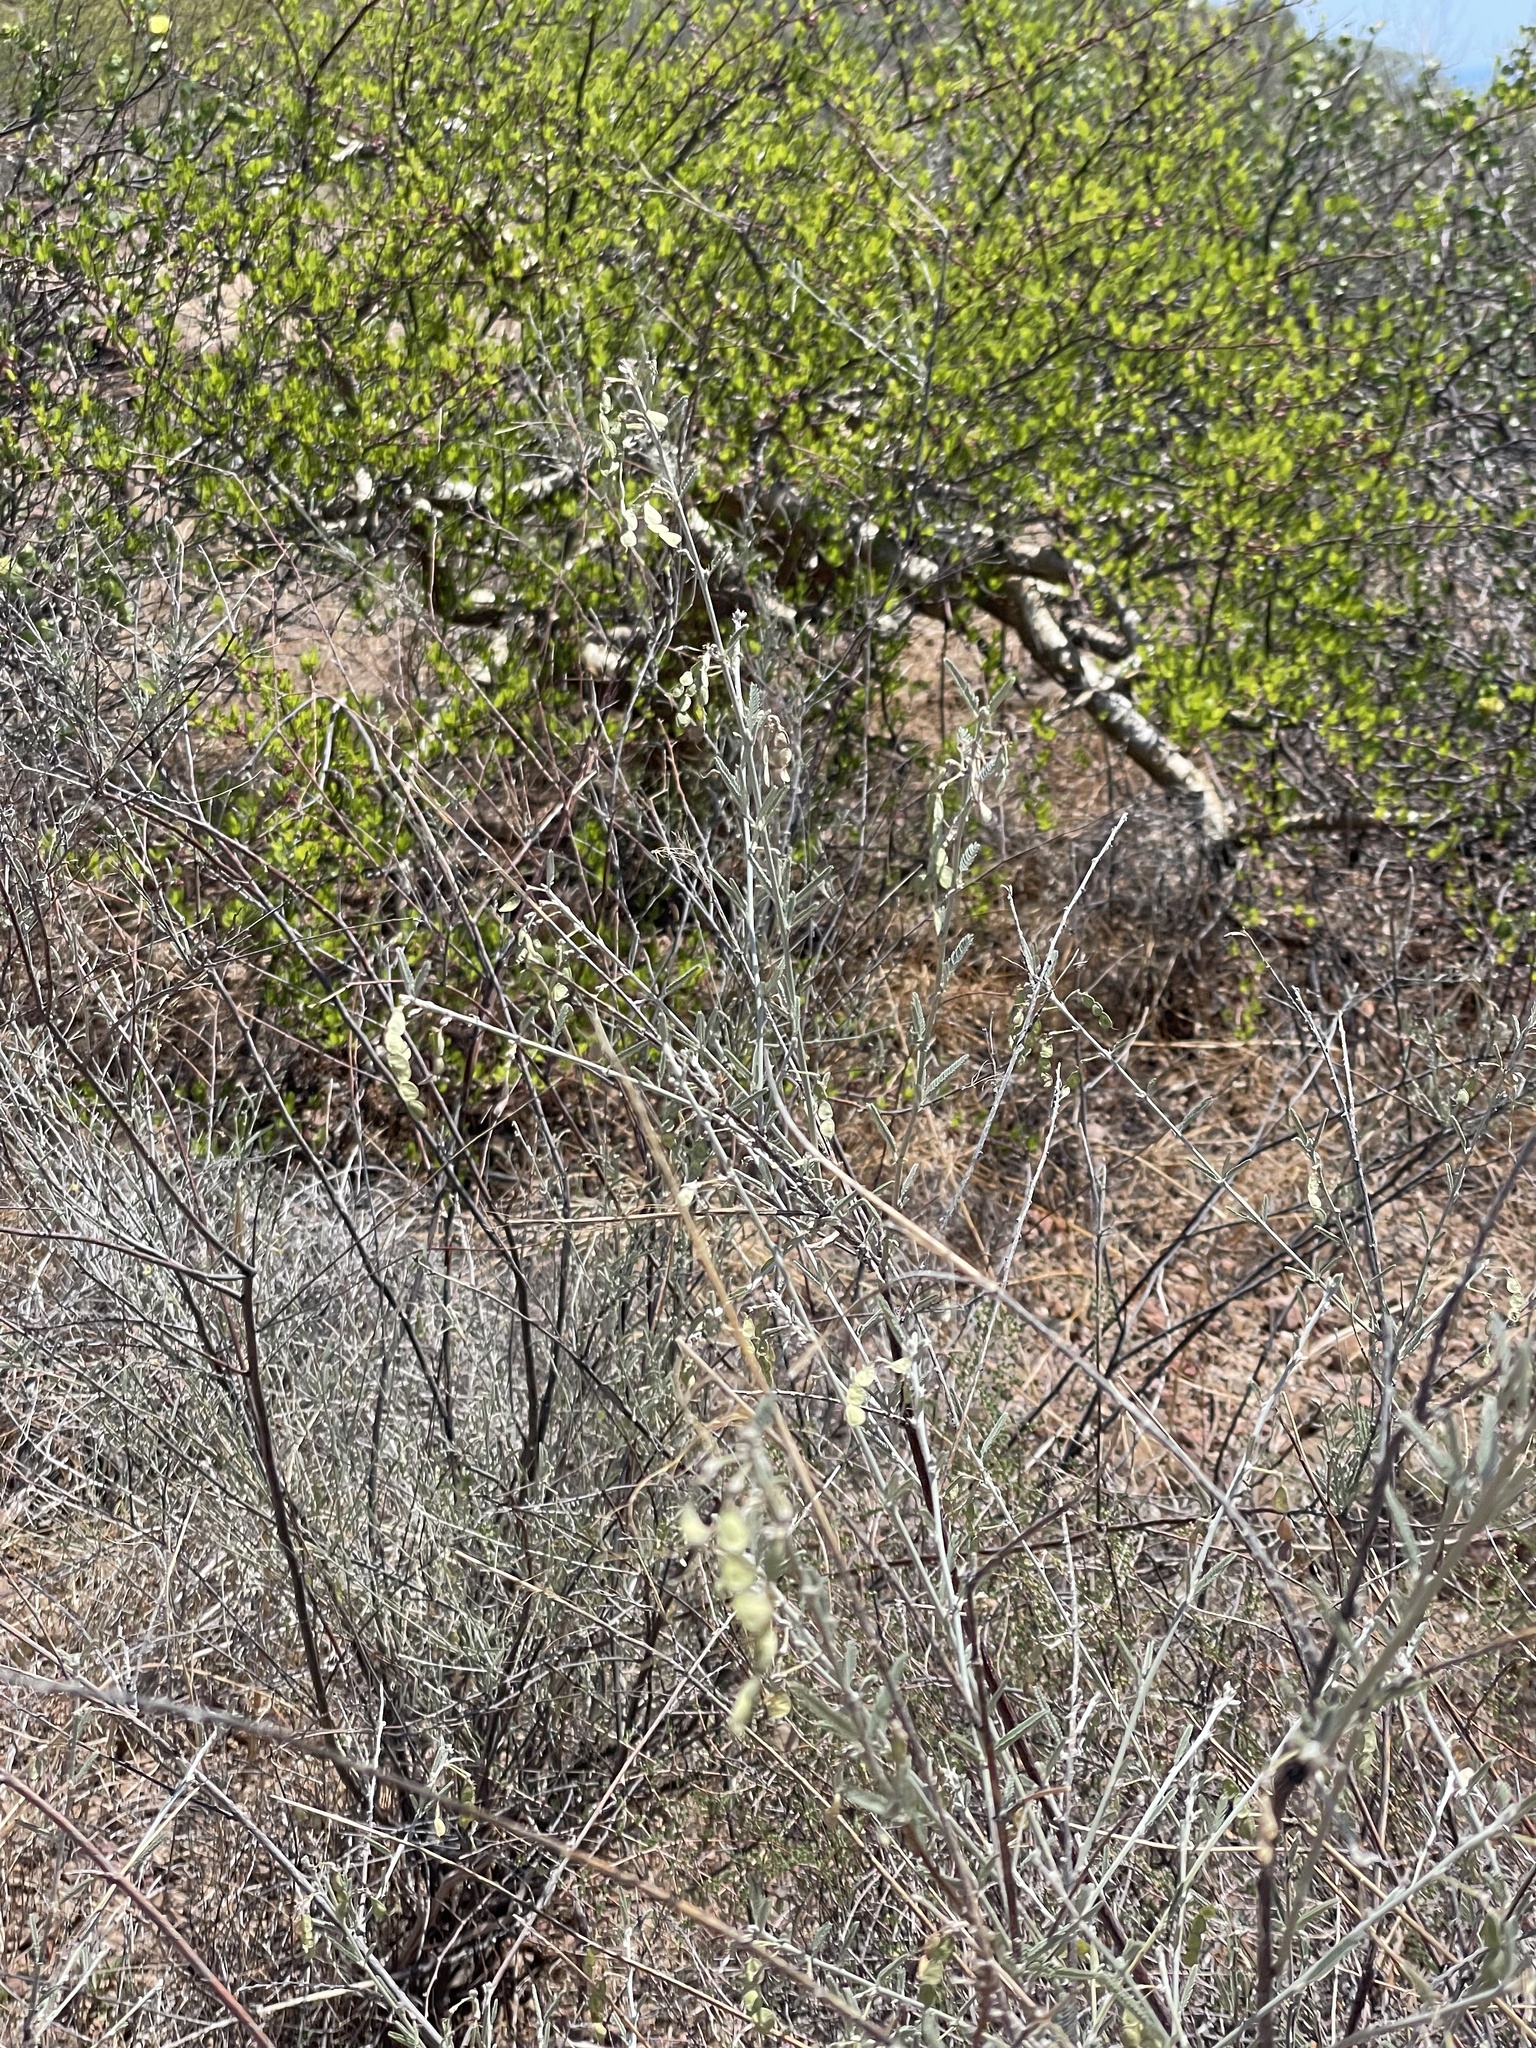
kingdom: Plantae
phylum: Tracheophyta
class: Magnoliopsida
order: Fabales
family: Fabaceae
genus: Ctenodon
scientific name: Ctenodon niveus
